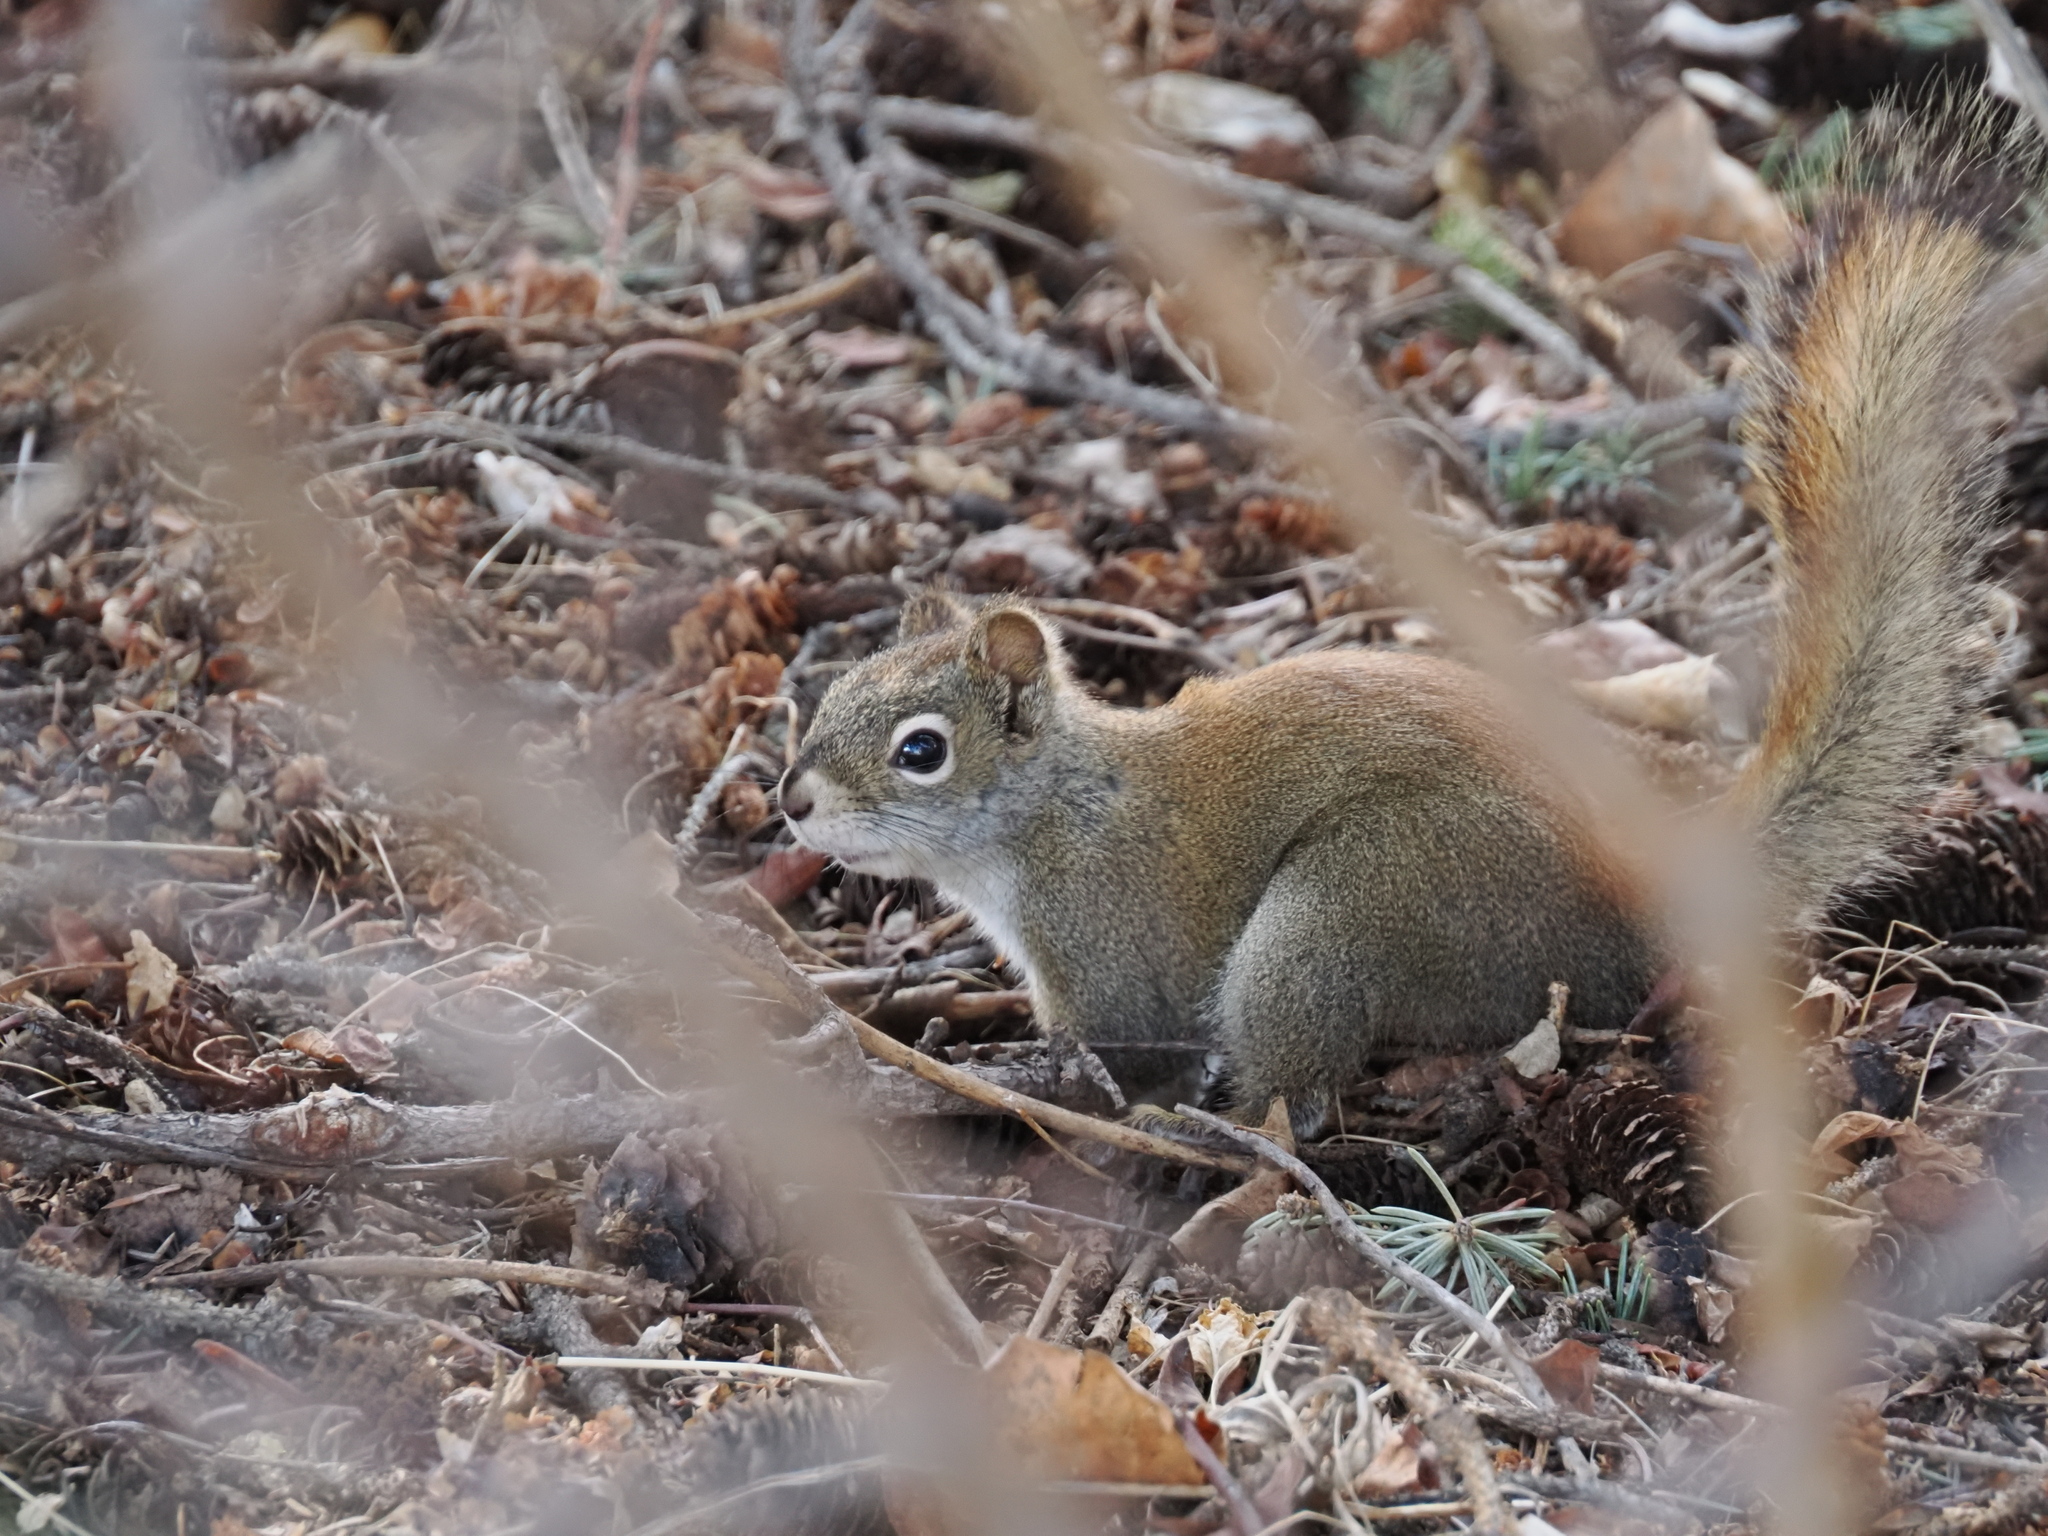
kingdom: Animalia
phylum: Chordata
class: Mammalia
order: Rodentia
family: Sciuridae
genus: Tamiasciurus
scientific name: Tamiasciurus hudsonicus
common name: Red squirrel
